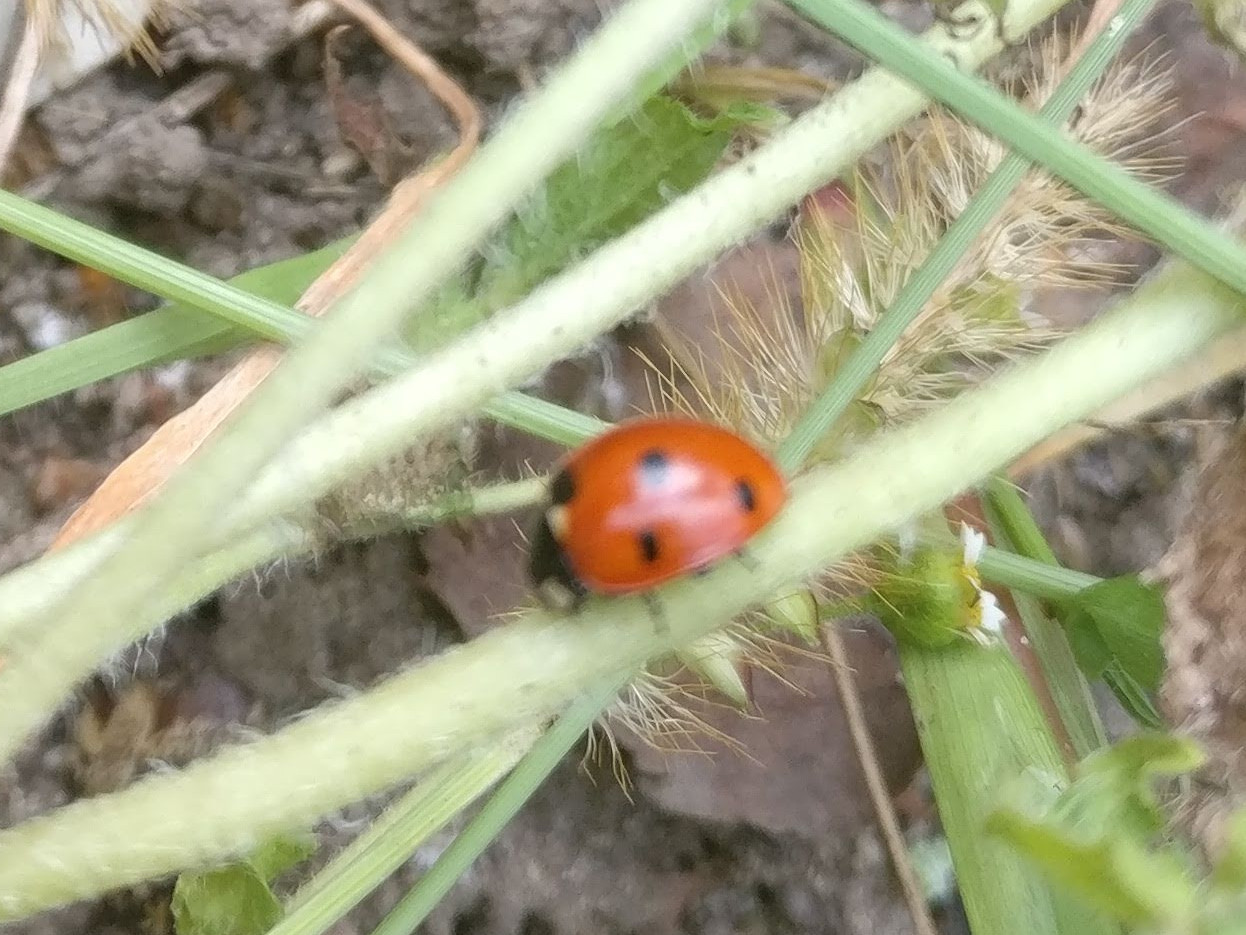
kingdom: Animalia
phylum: Arthropoda
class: Insecta
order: Coleoptera
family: Coccinellidae
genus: Coccinella
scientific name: Coccinella septempunctata
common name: Sevenspotted lady beetle
